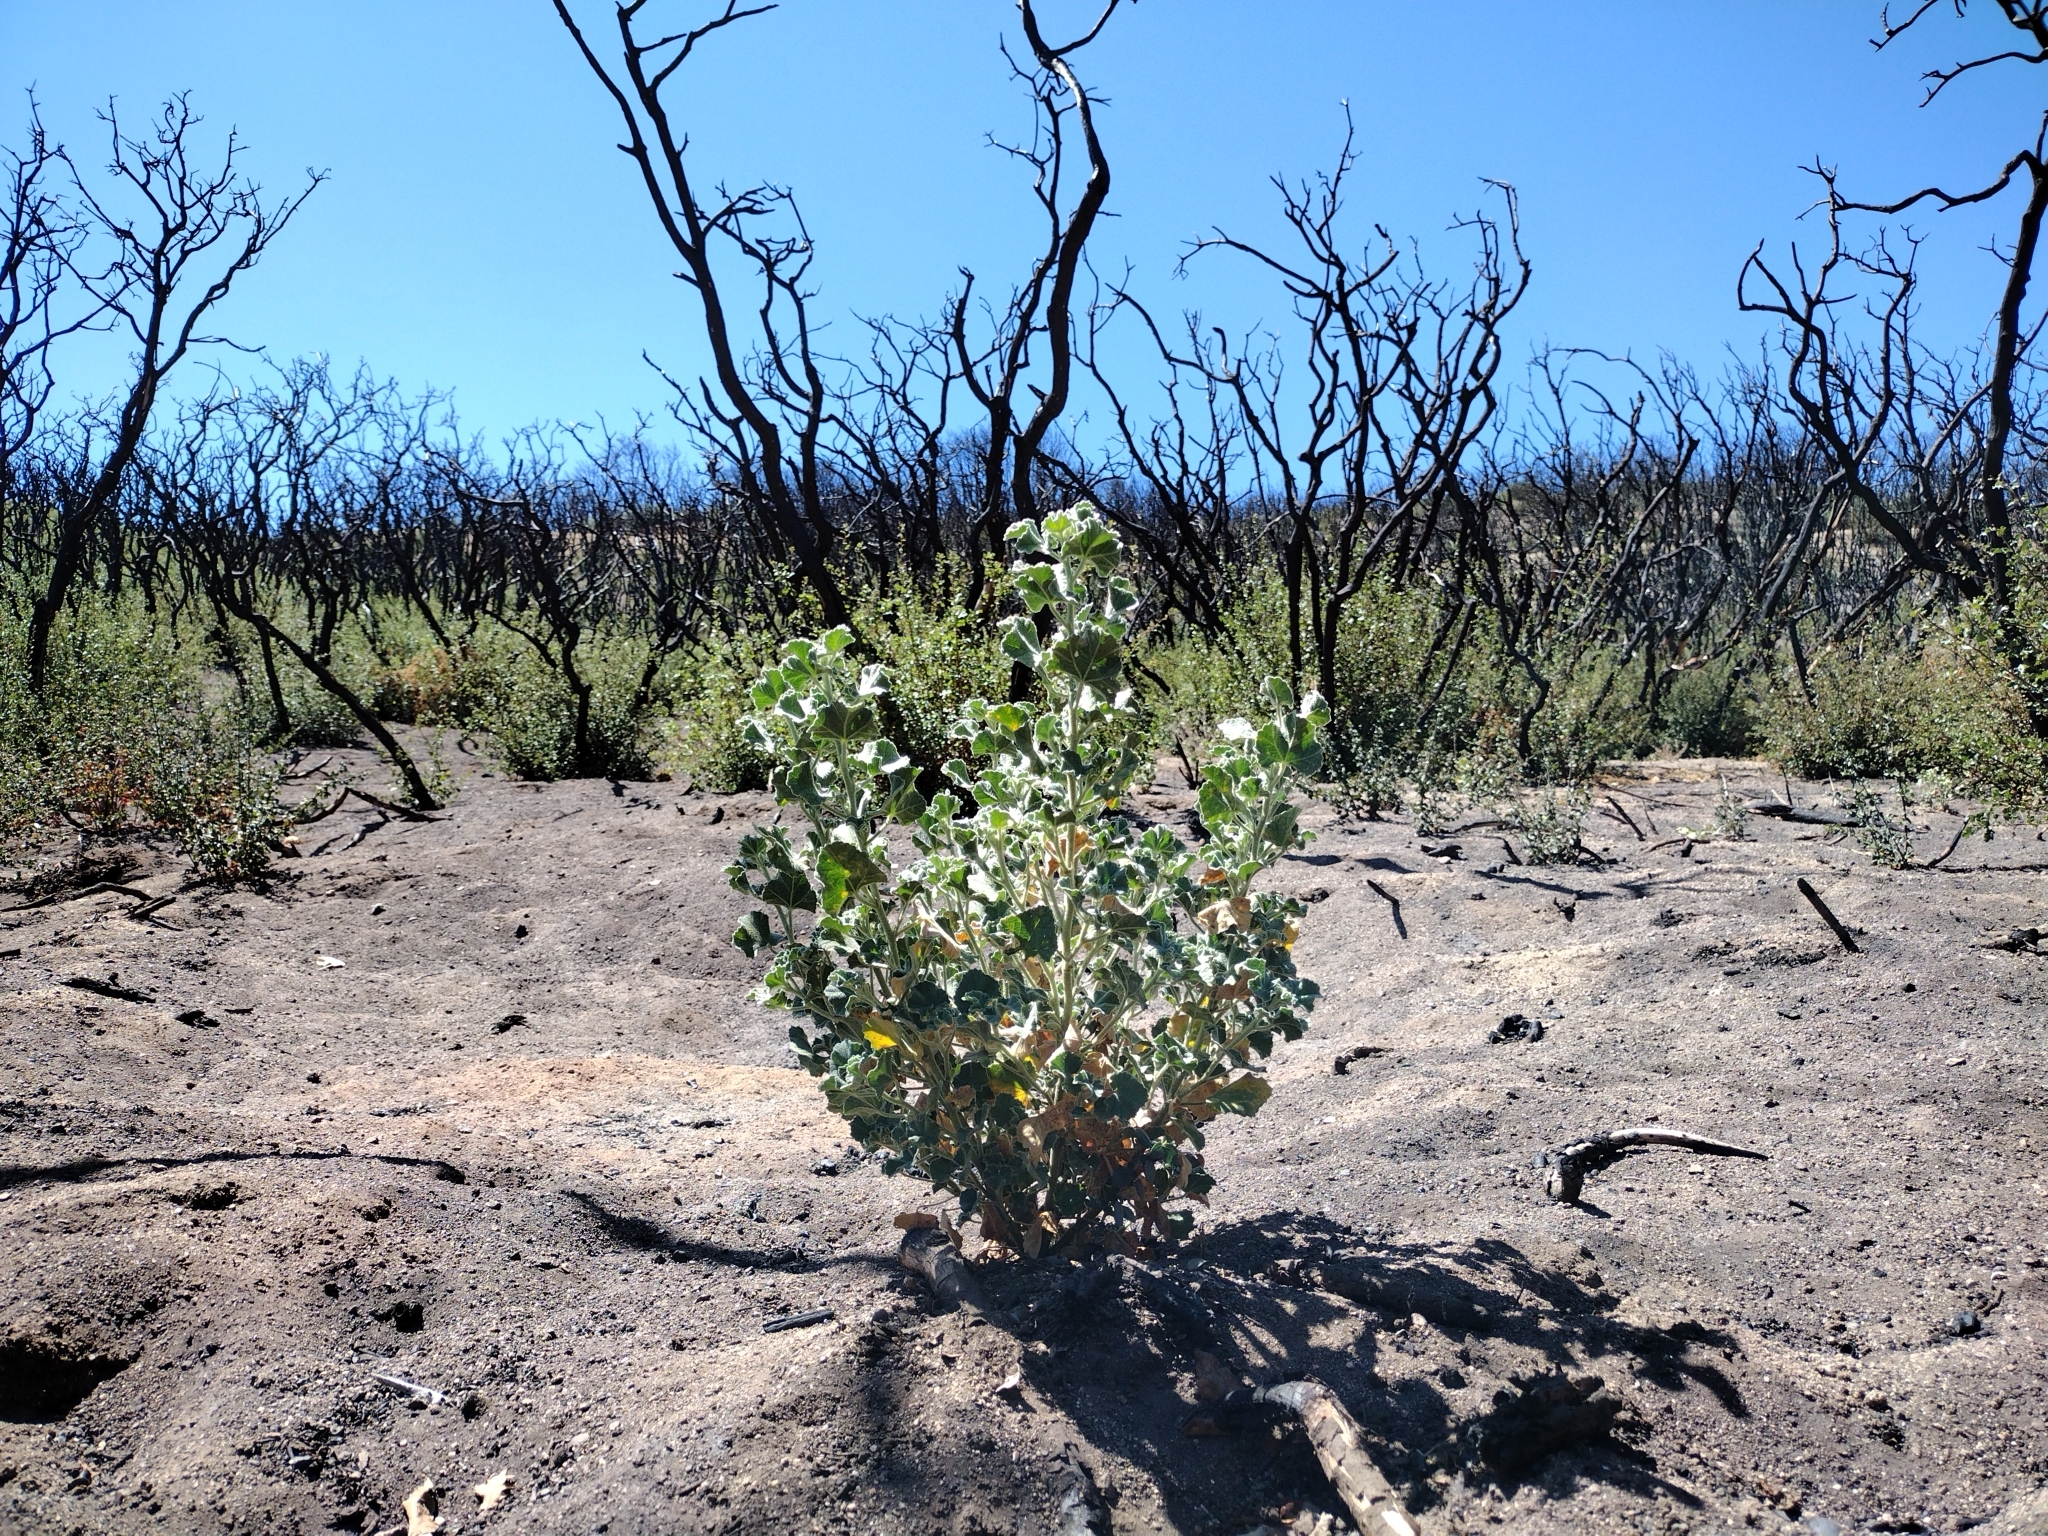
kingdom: Plantae
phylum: Tracheophyta
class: Magnoliopsida
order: Malvales
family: Malvaceae
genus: Malacothamnus
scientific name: Malacothamnus fremontii
